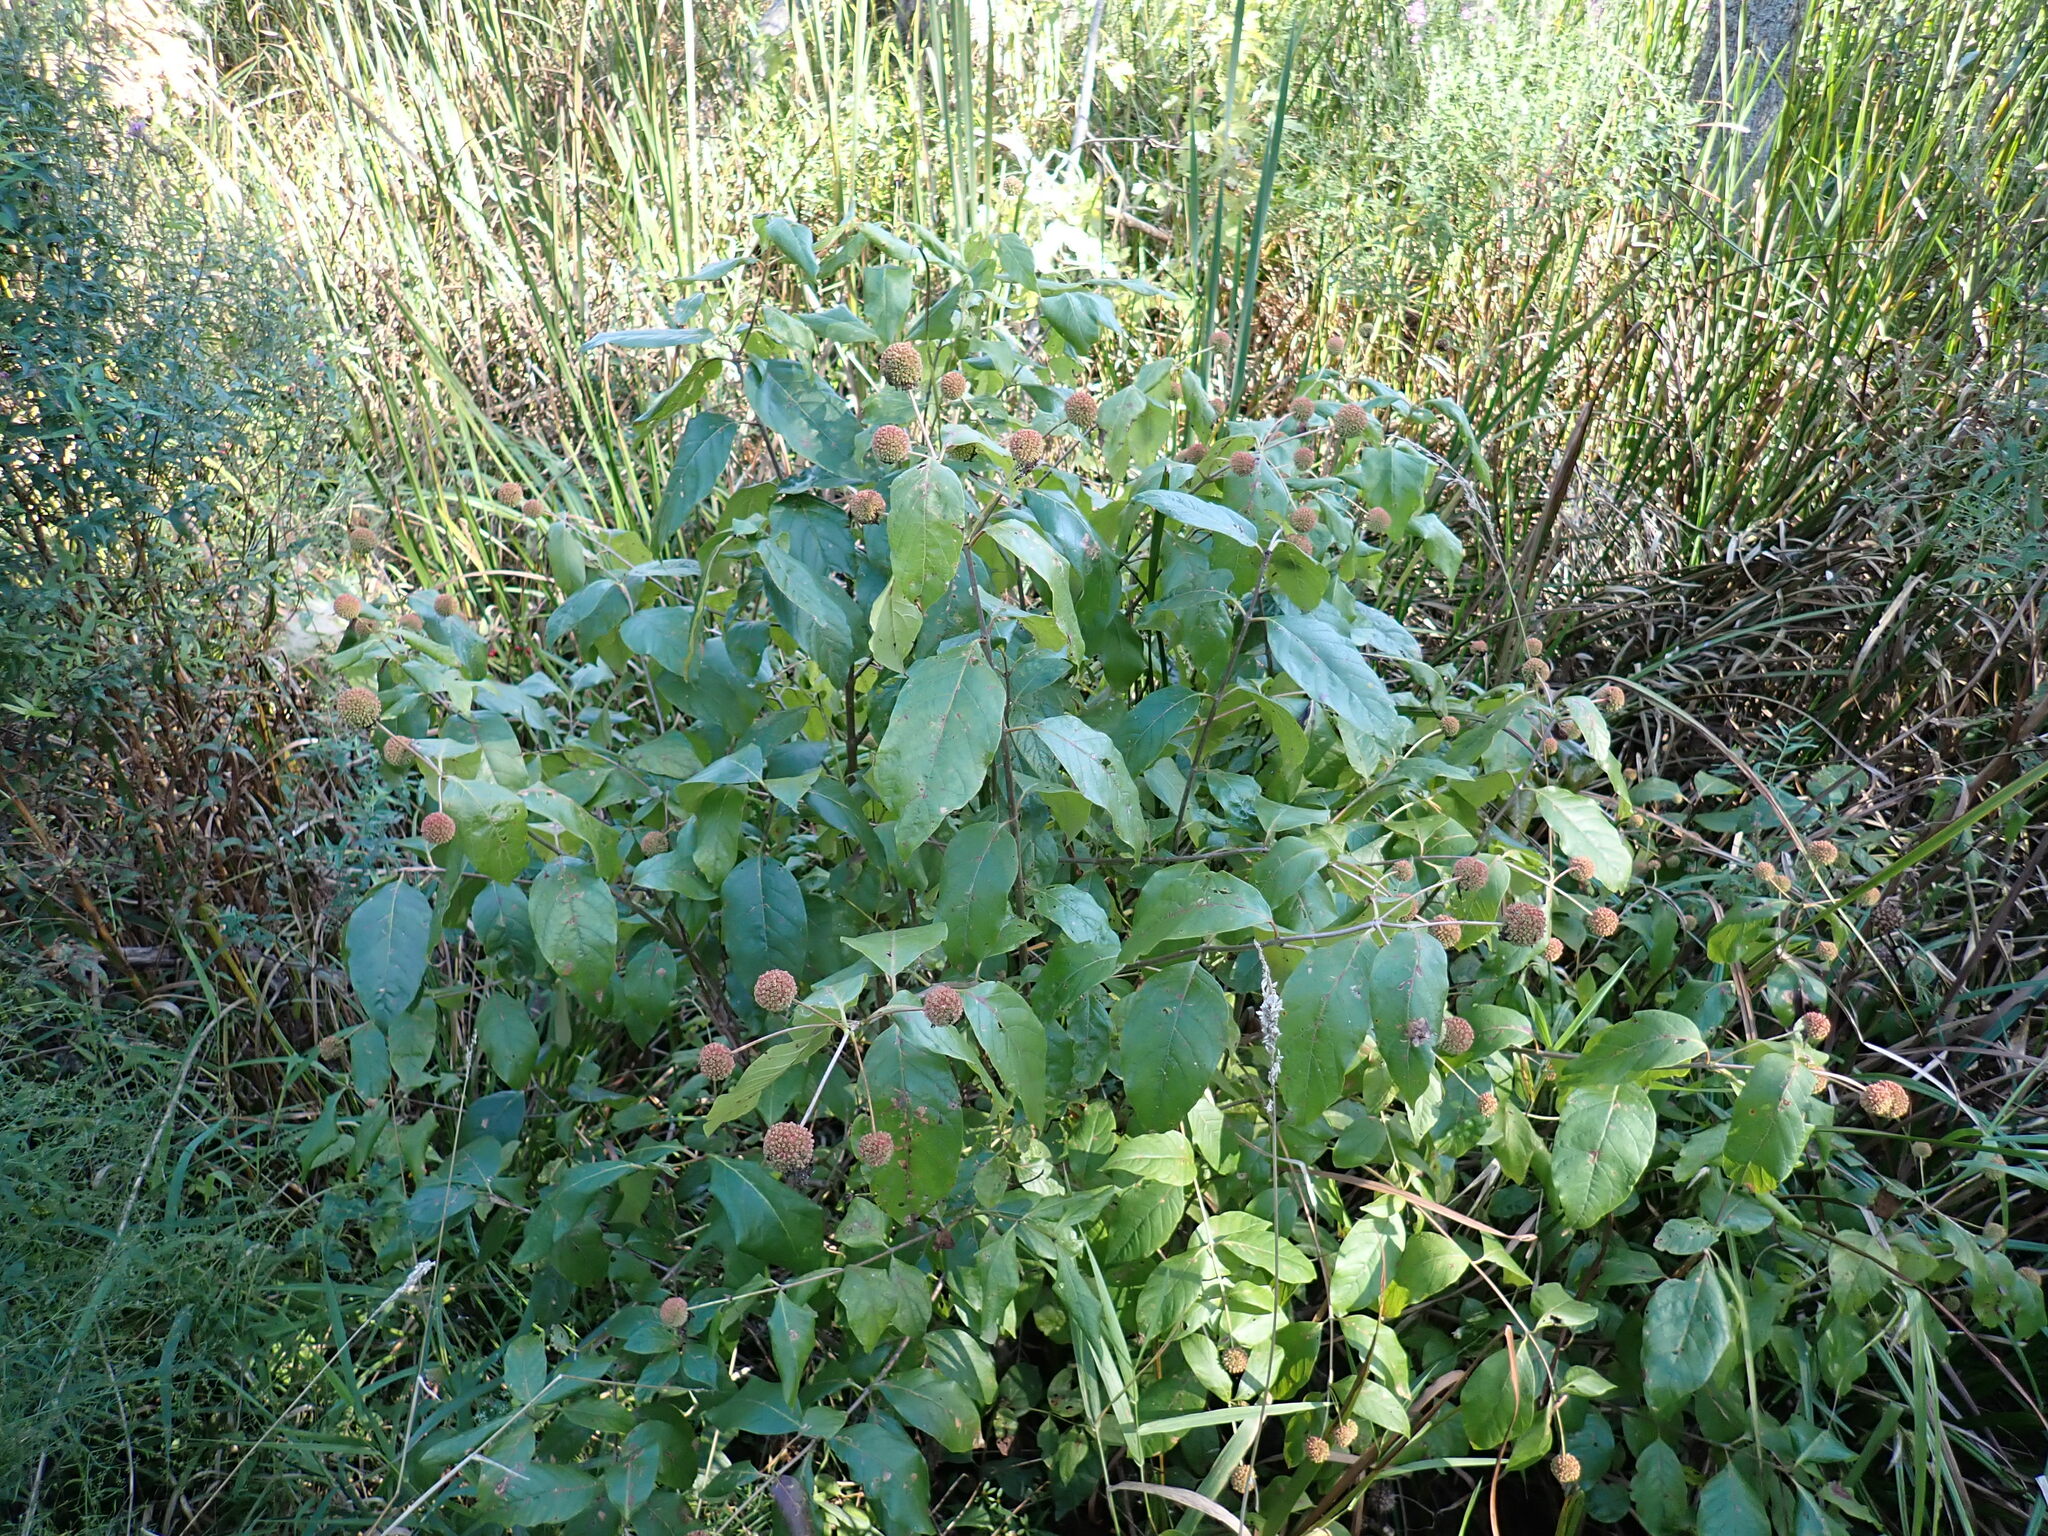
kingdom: Plantae
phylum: Tracheophyta
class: Magnoliopsida
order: Gentianales
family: Rubiaceae
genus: Cephalanthus
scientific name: Cephalanthus occidentalis
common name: Button-willow
